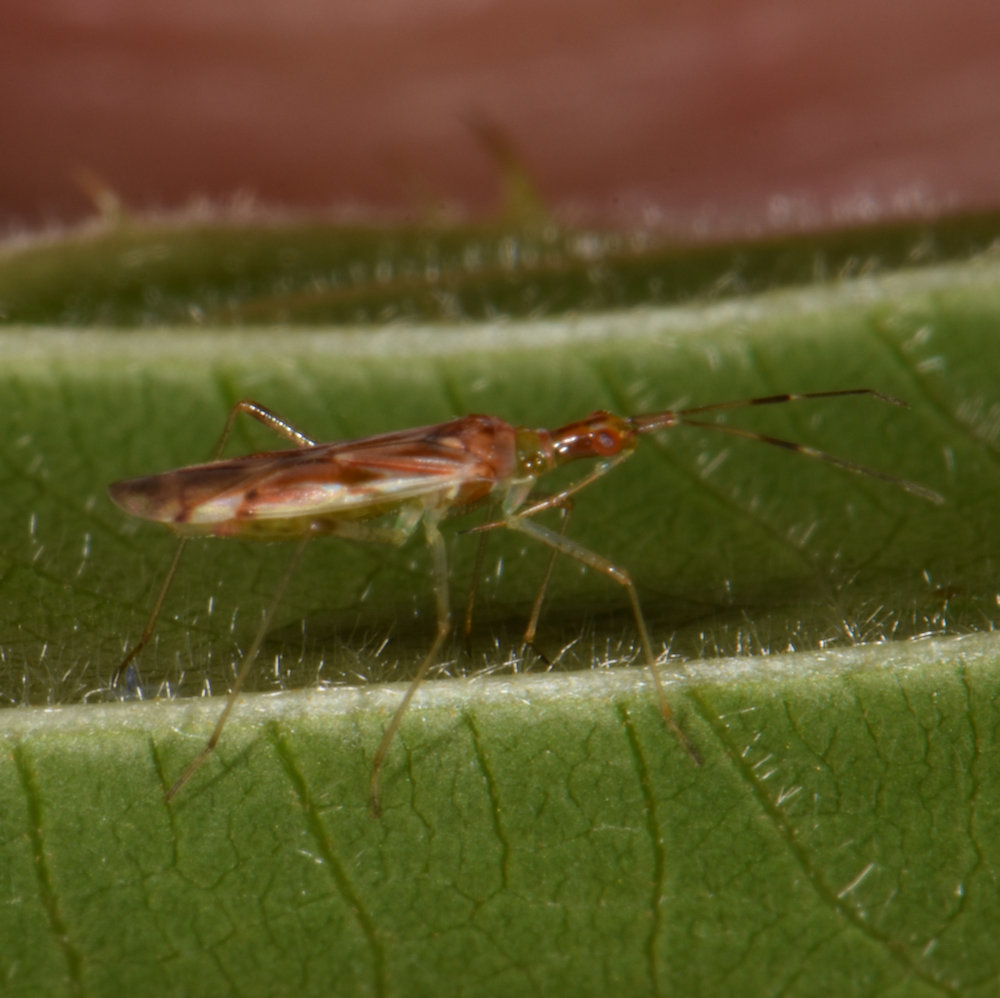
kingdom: Animalia
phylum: Arthropoda
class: Insecta
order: Hemiptera
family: Miridae
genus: Dicyphus
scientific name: Dicyphus famelicus
